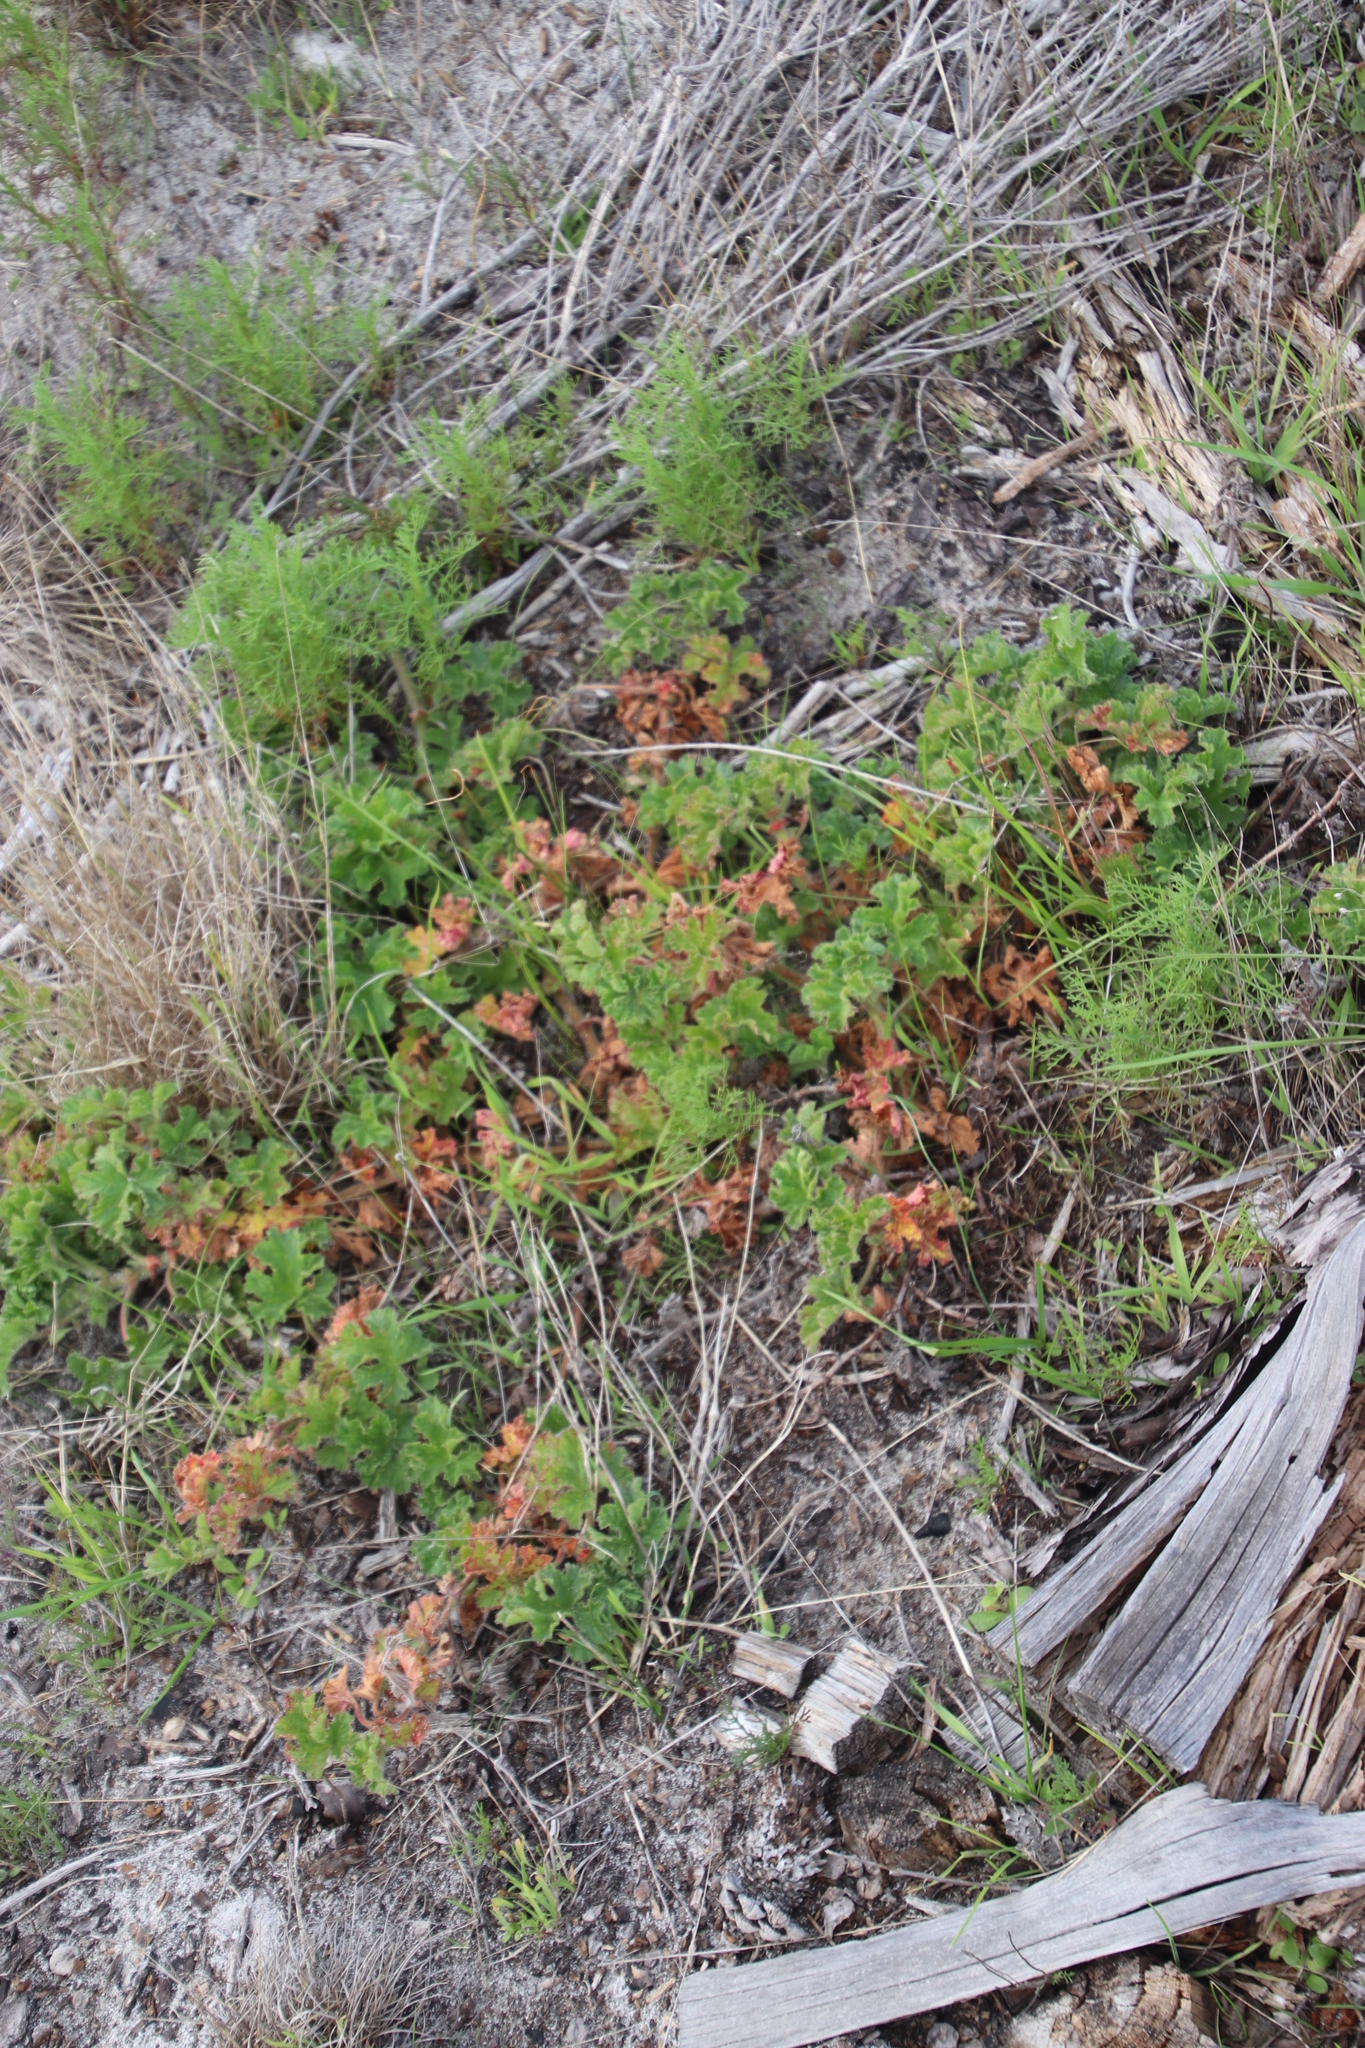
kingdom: Plantae
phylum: Tracheophyta
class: Magnoliopsida
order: Geraniales
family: Geraniaceae
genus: Pelargonium
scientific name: Pelargonium capitatum
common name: Rose scented geranium
